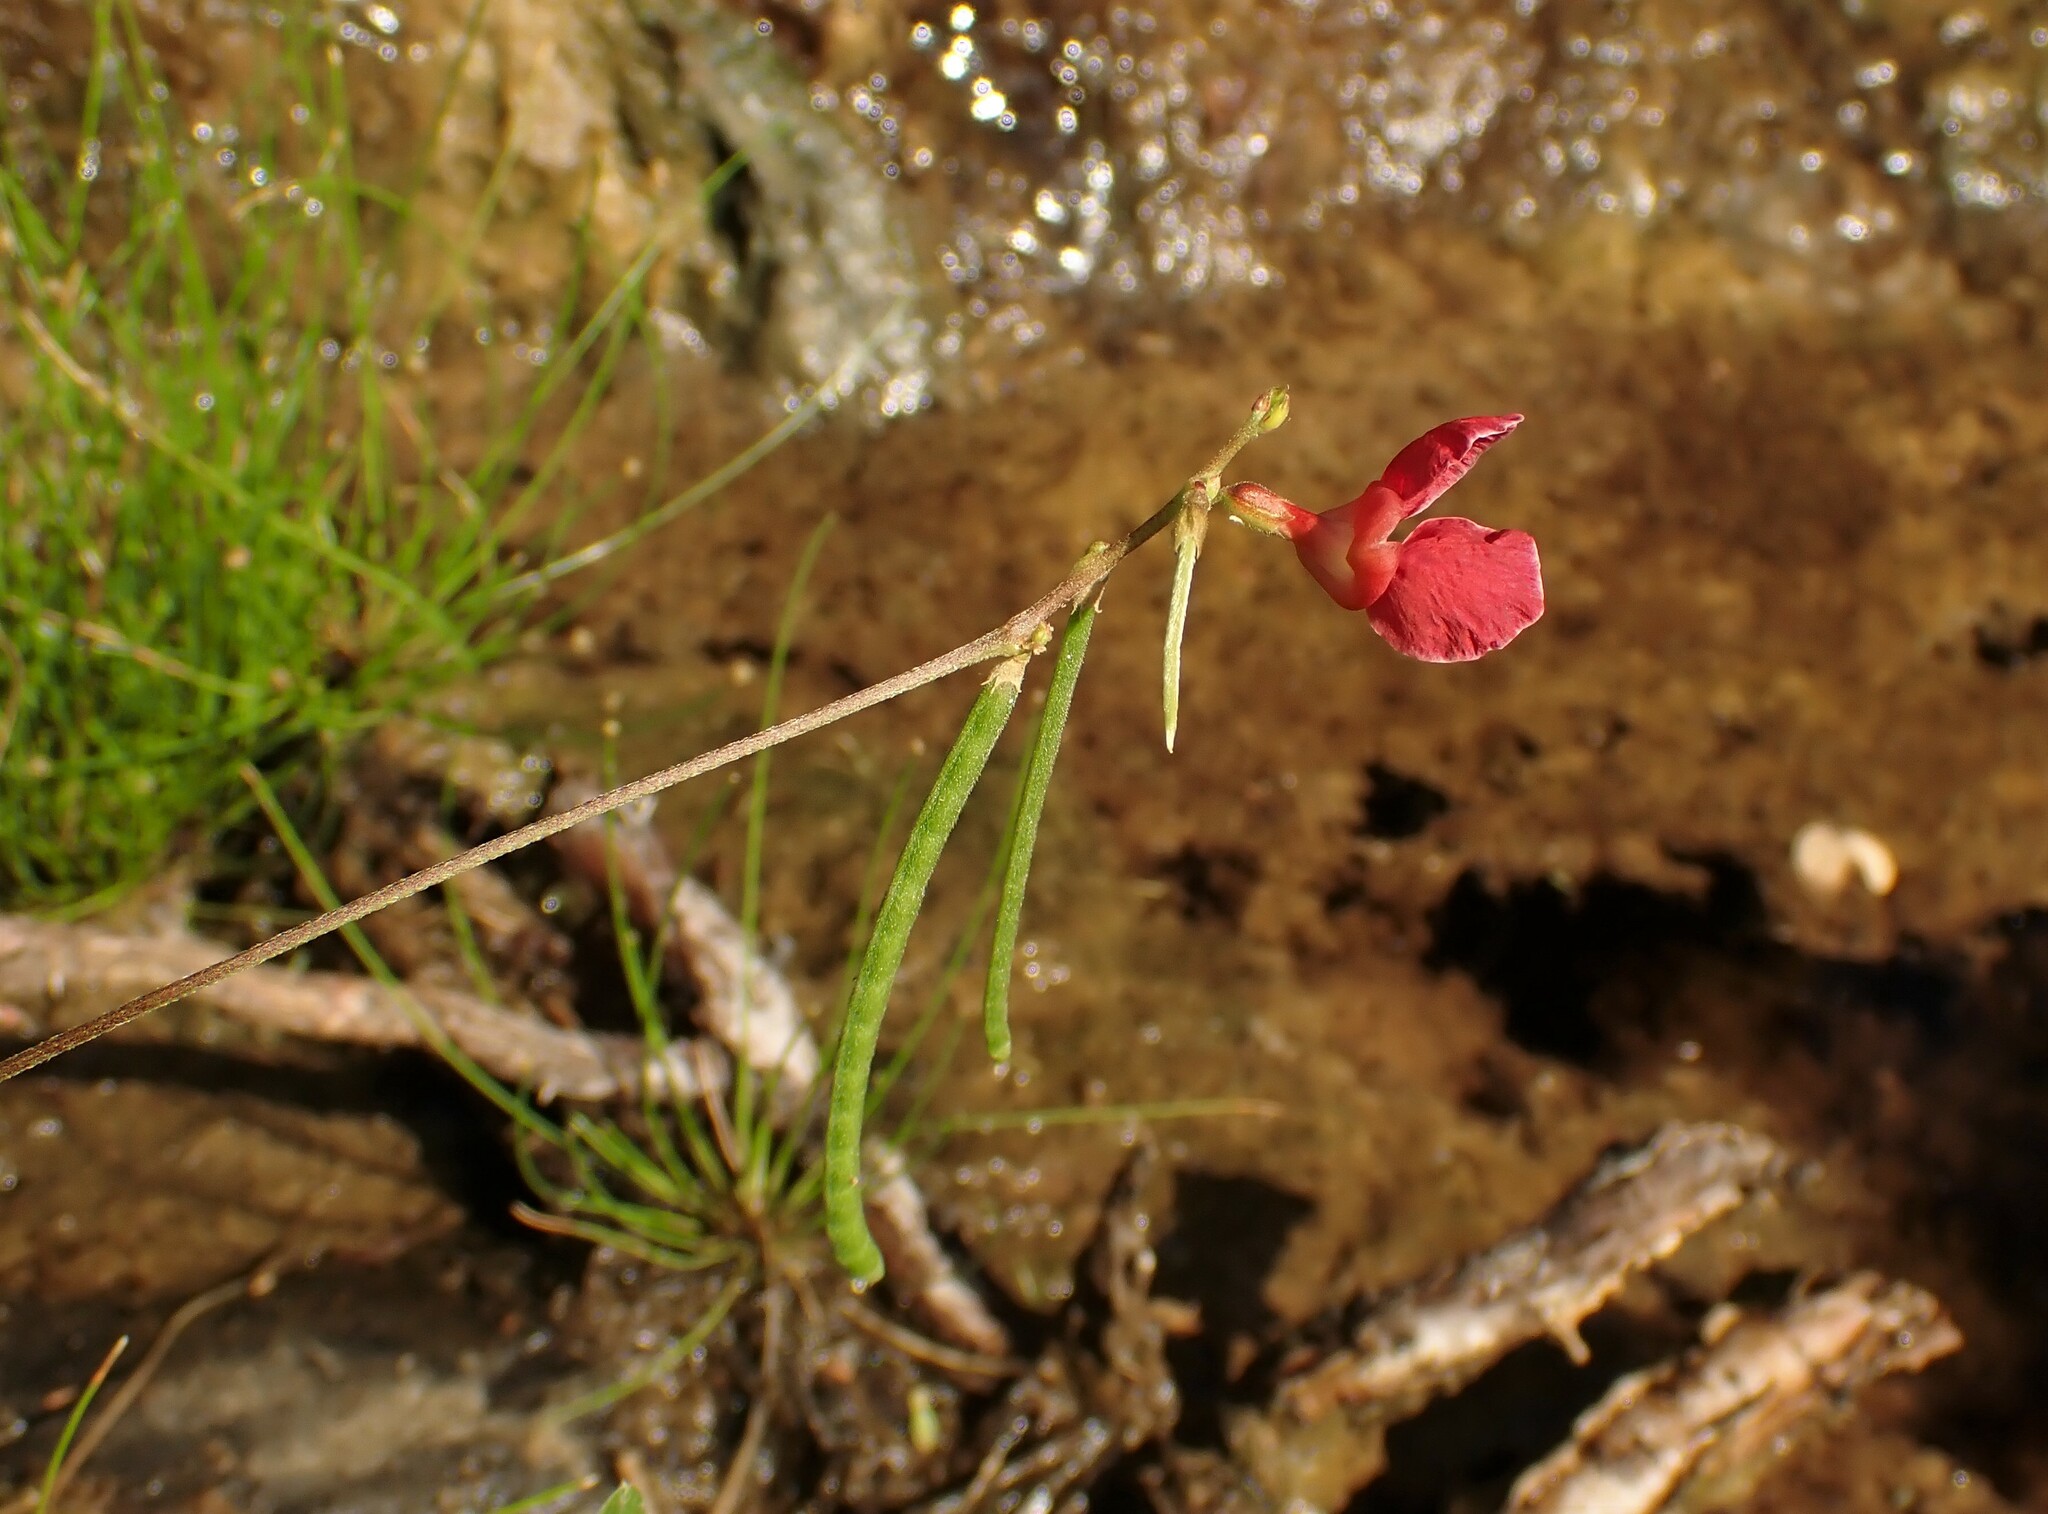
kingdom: Plantae
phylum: Tracheophyta
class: Magnoliopsida
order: Fabales
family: Fabaceae
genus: Macroptilium
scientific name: Macroptilium lathyroides
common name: Wild bushbean
